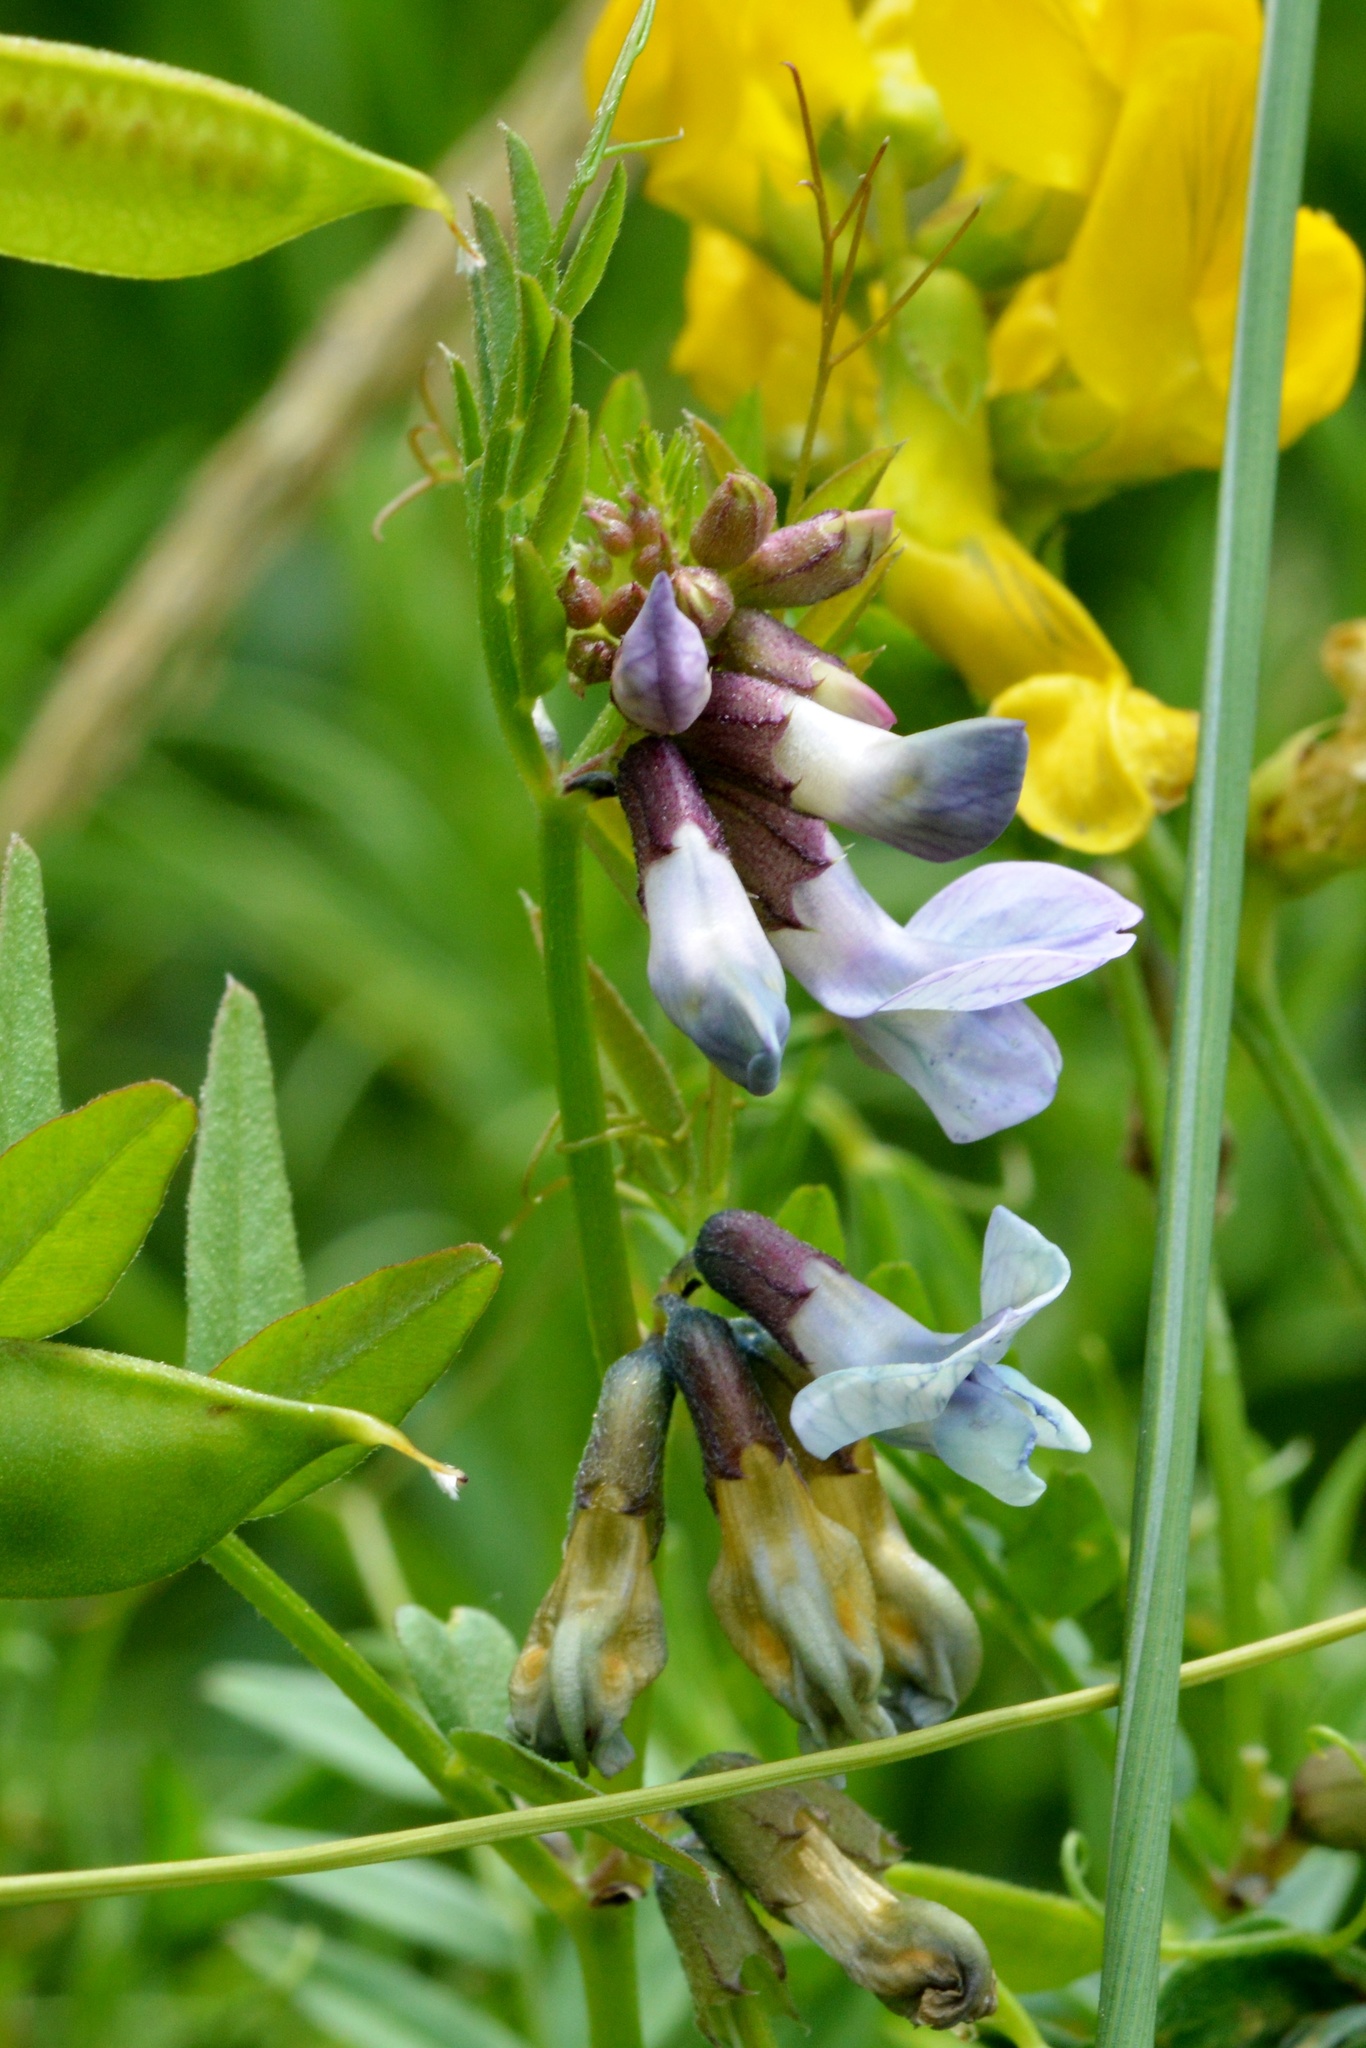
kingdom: Plantae
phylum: Tracheophyta
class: Magnoliopsida
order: Fabales
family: Fabaceae
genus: Vicia
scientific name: Vicia sepium
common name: Bush vetch
